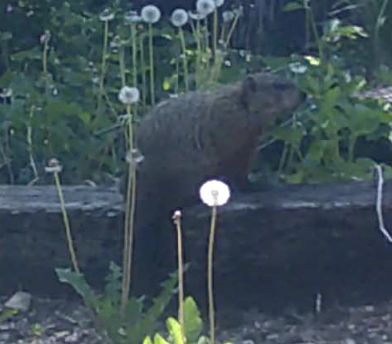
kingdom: Animalia
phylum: Chordata
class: Mammalia
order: Rodentia
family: Sciuridae
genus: Marmota
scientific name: Marmota monax
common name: Groundhog
